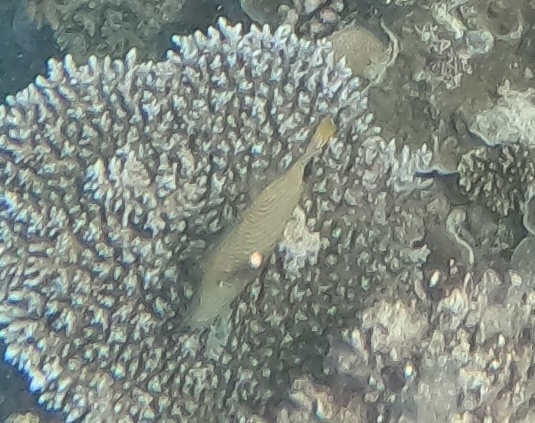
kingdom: Animalia
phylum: Chordata
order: Tetraodontiformes
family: Balistidae
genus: Balistapus
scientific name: Balistapus undulatus
